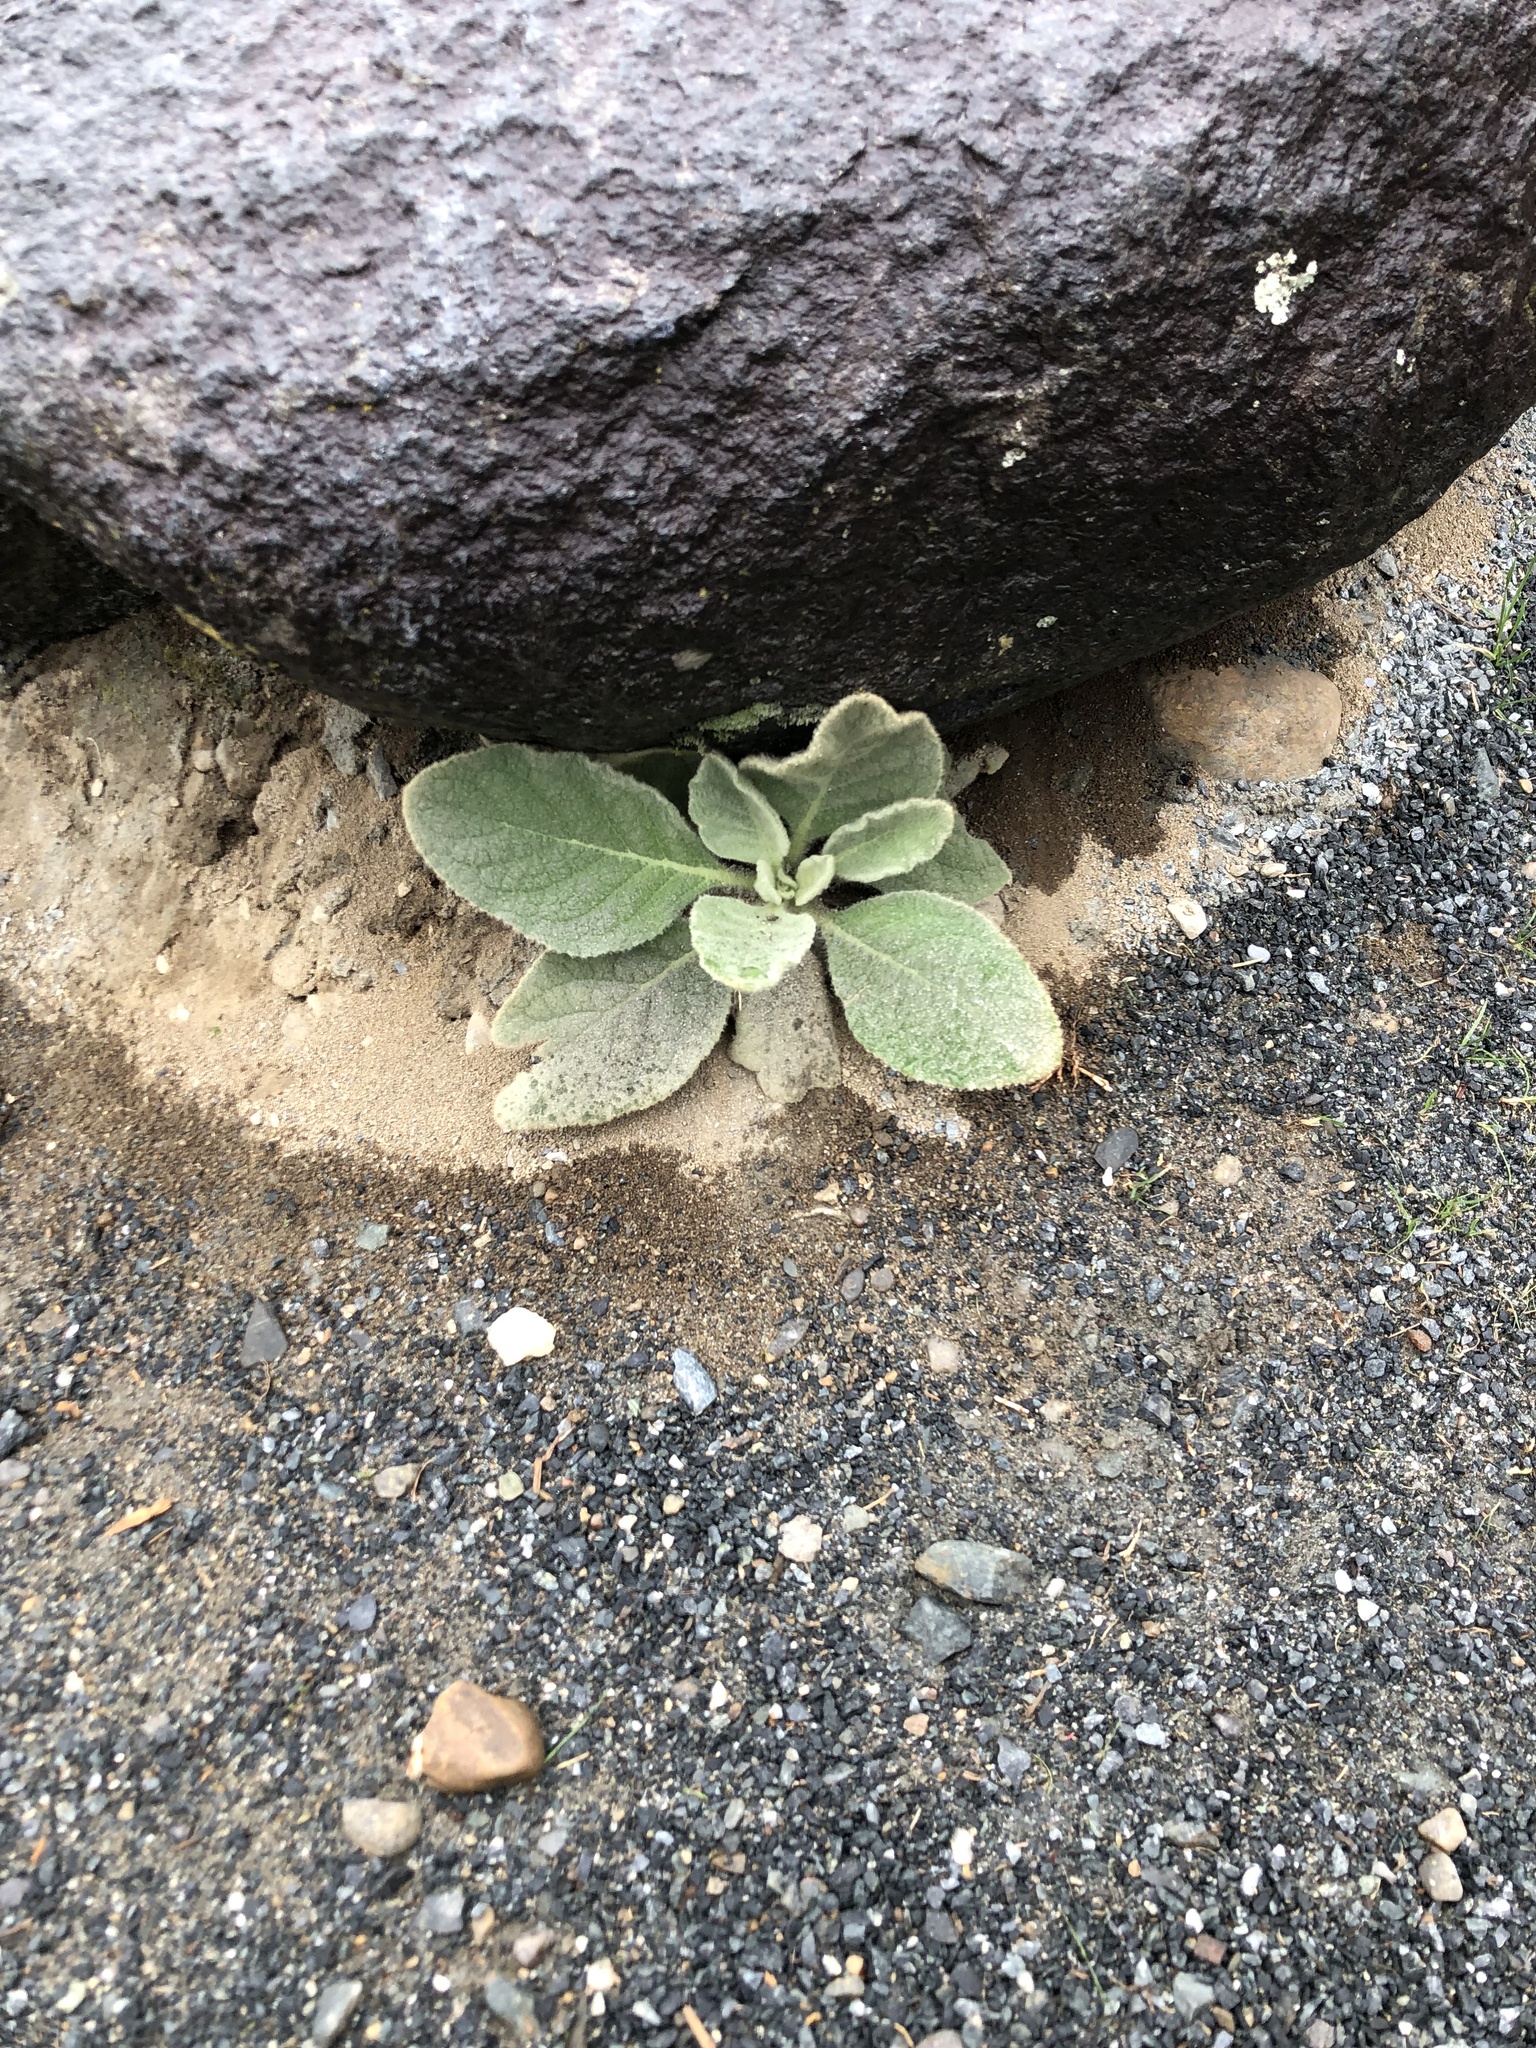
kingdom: Plantae
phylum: Tracheophyta
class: Magnoliopsida
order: Lamiales
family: Scrophulariaceae
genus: Verbascum
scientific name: Verbascum thapsus
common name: Common mullein
